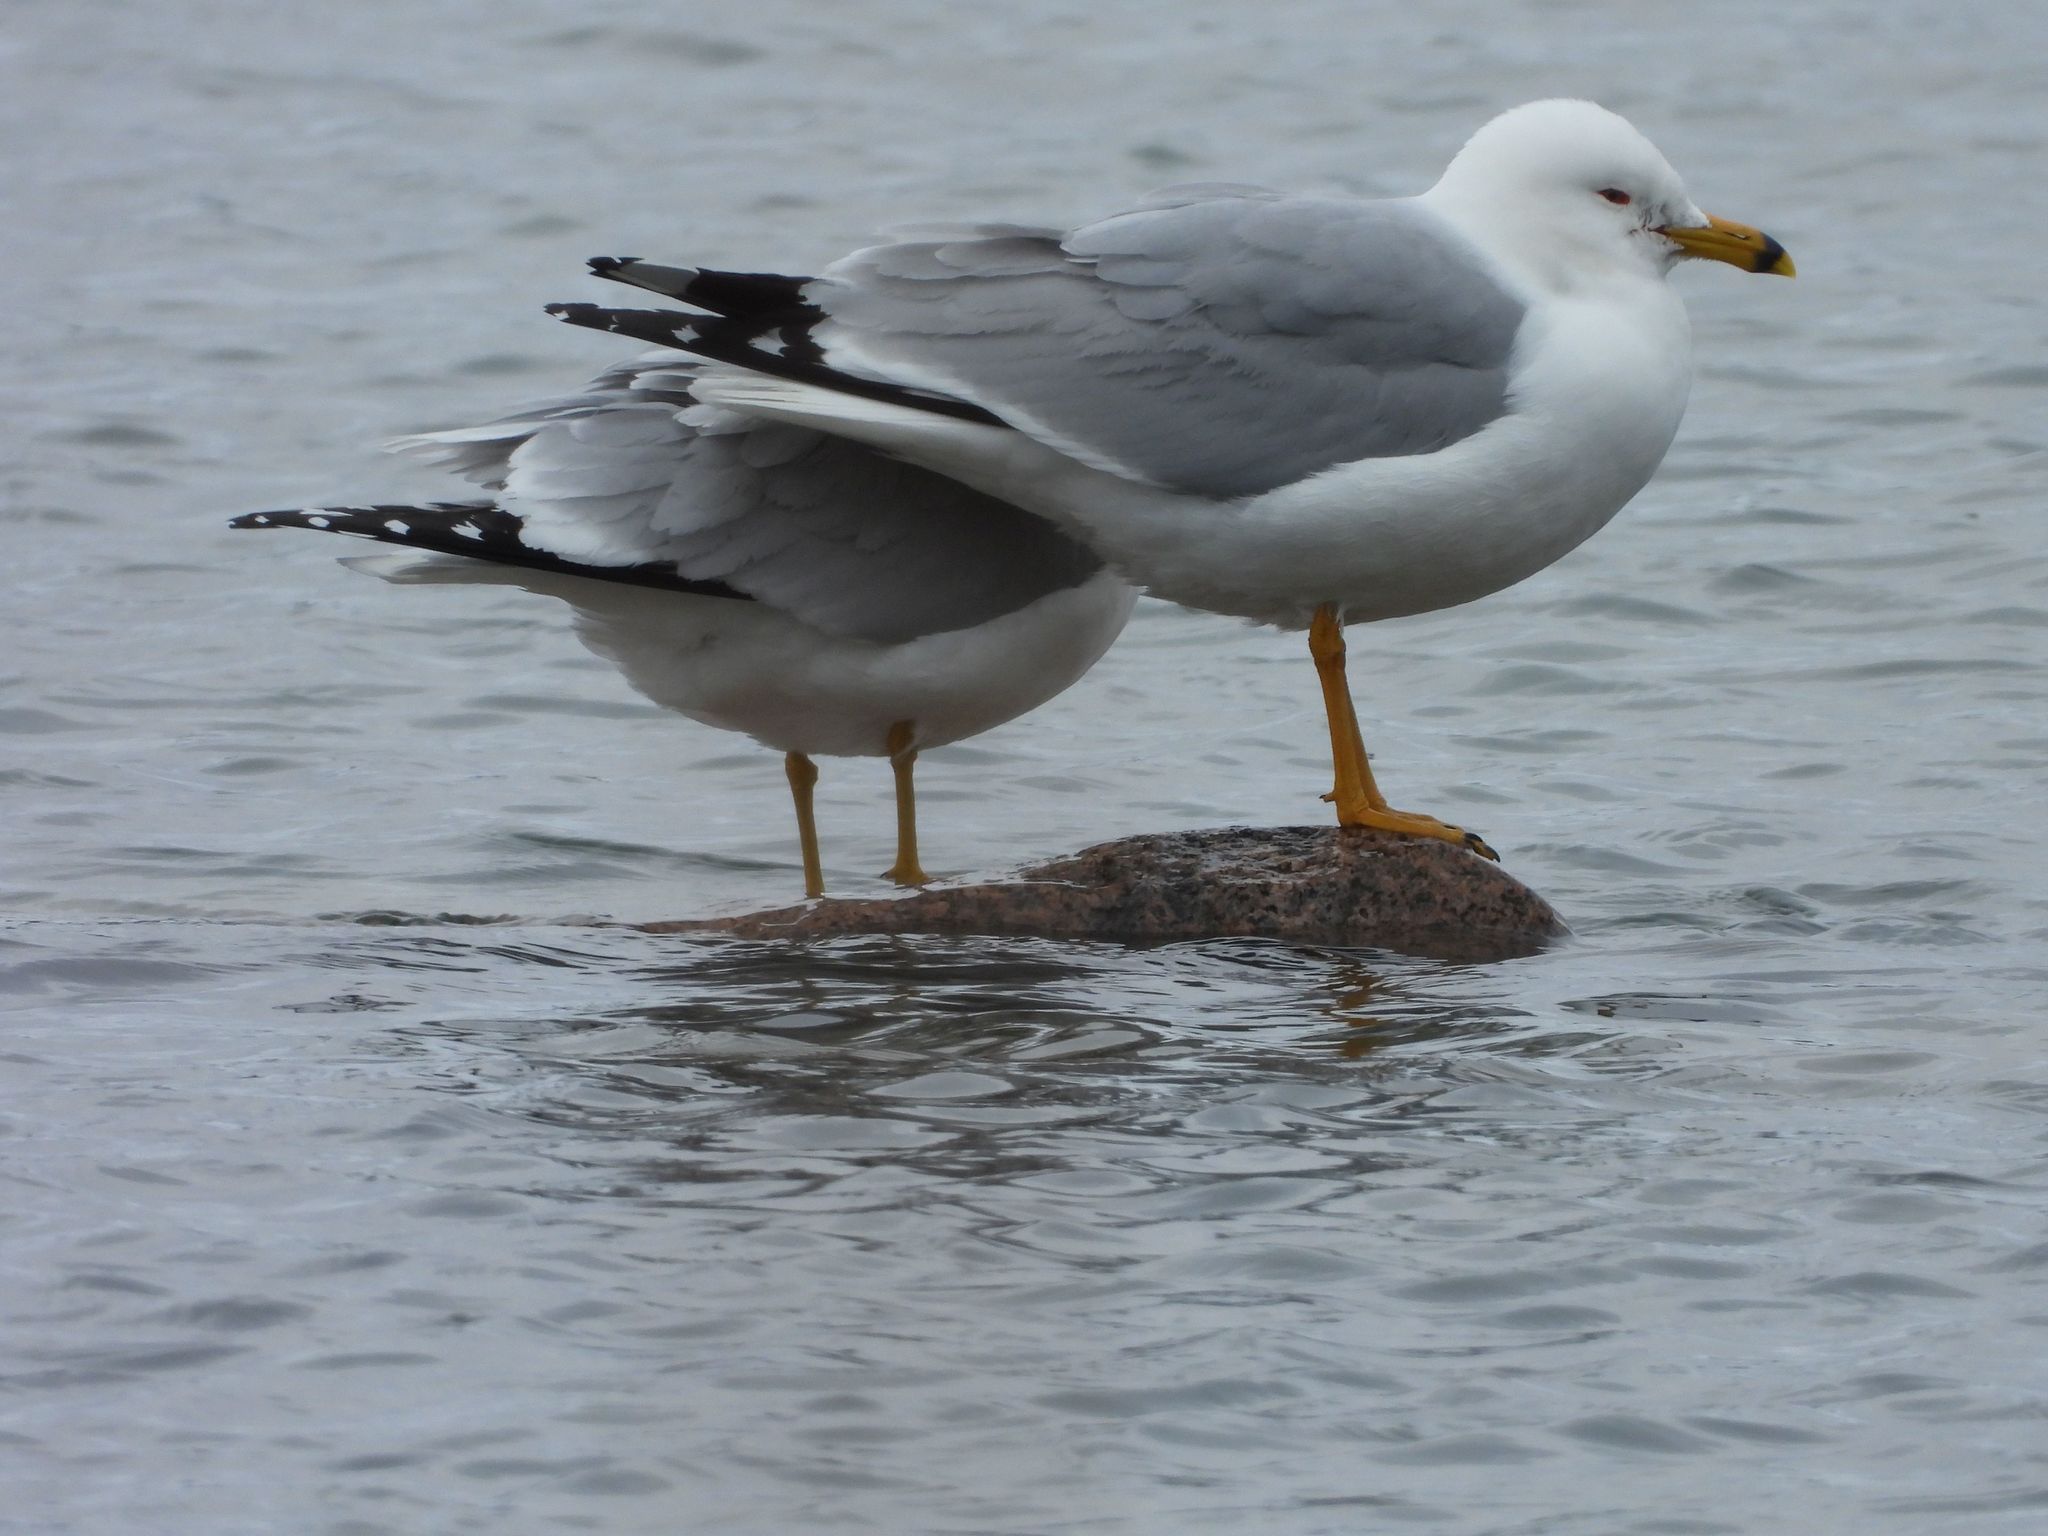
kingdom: Animalia
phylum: Chordata
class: Aves
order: Charadriiformes
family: Laridae
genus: Larus
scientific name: Larus delawarensis
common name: Ring-billed gull
